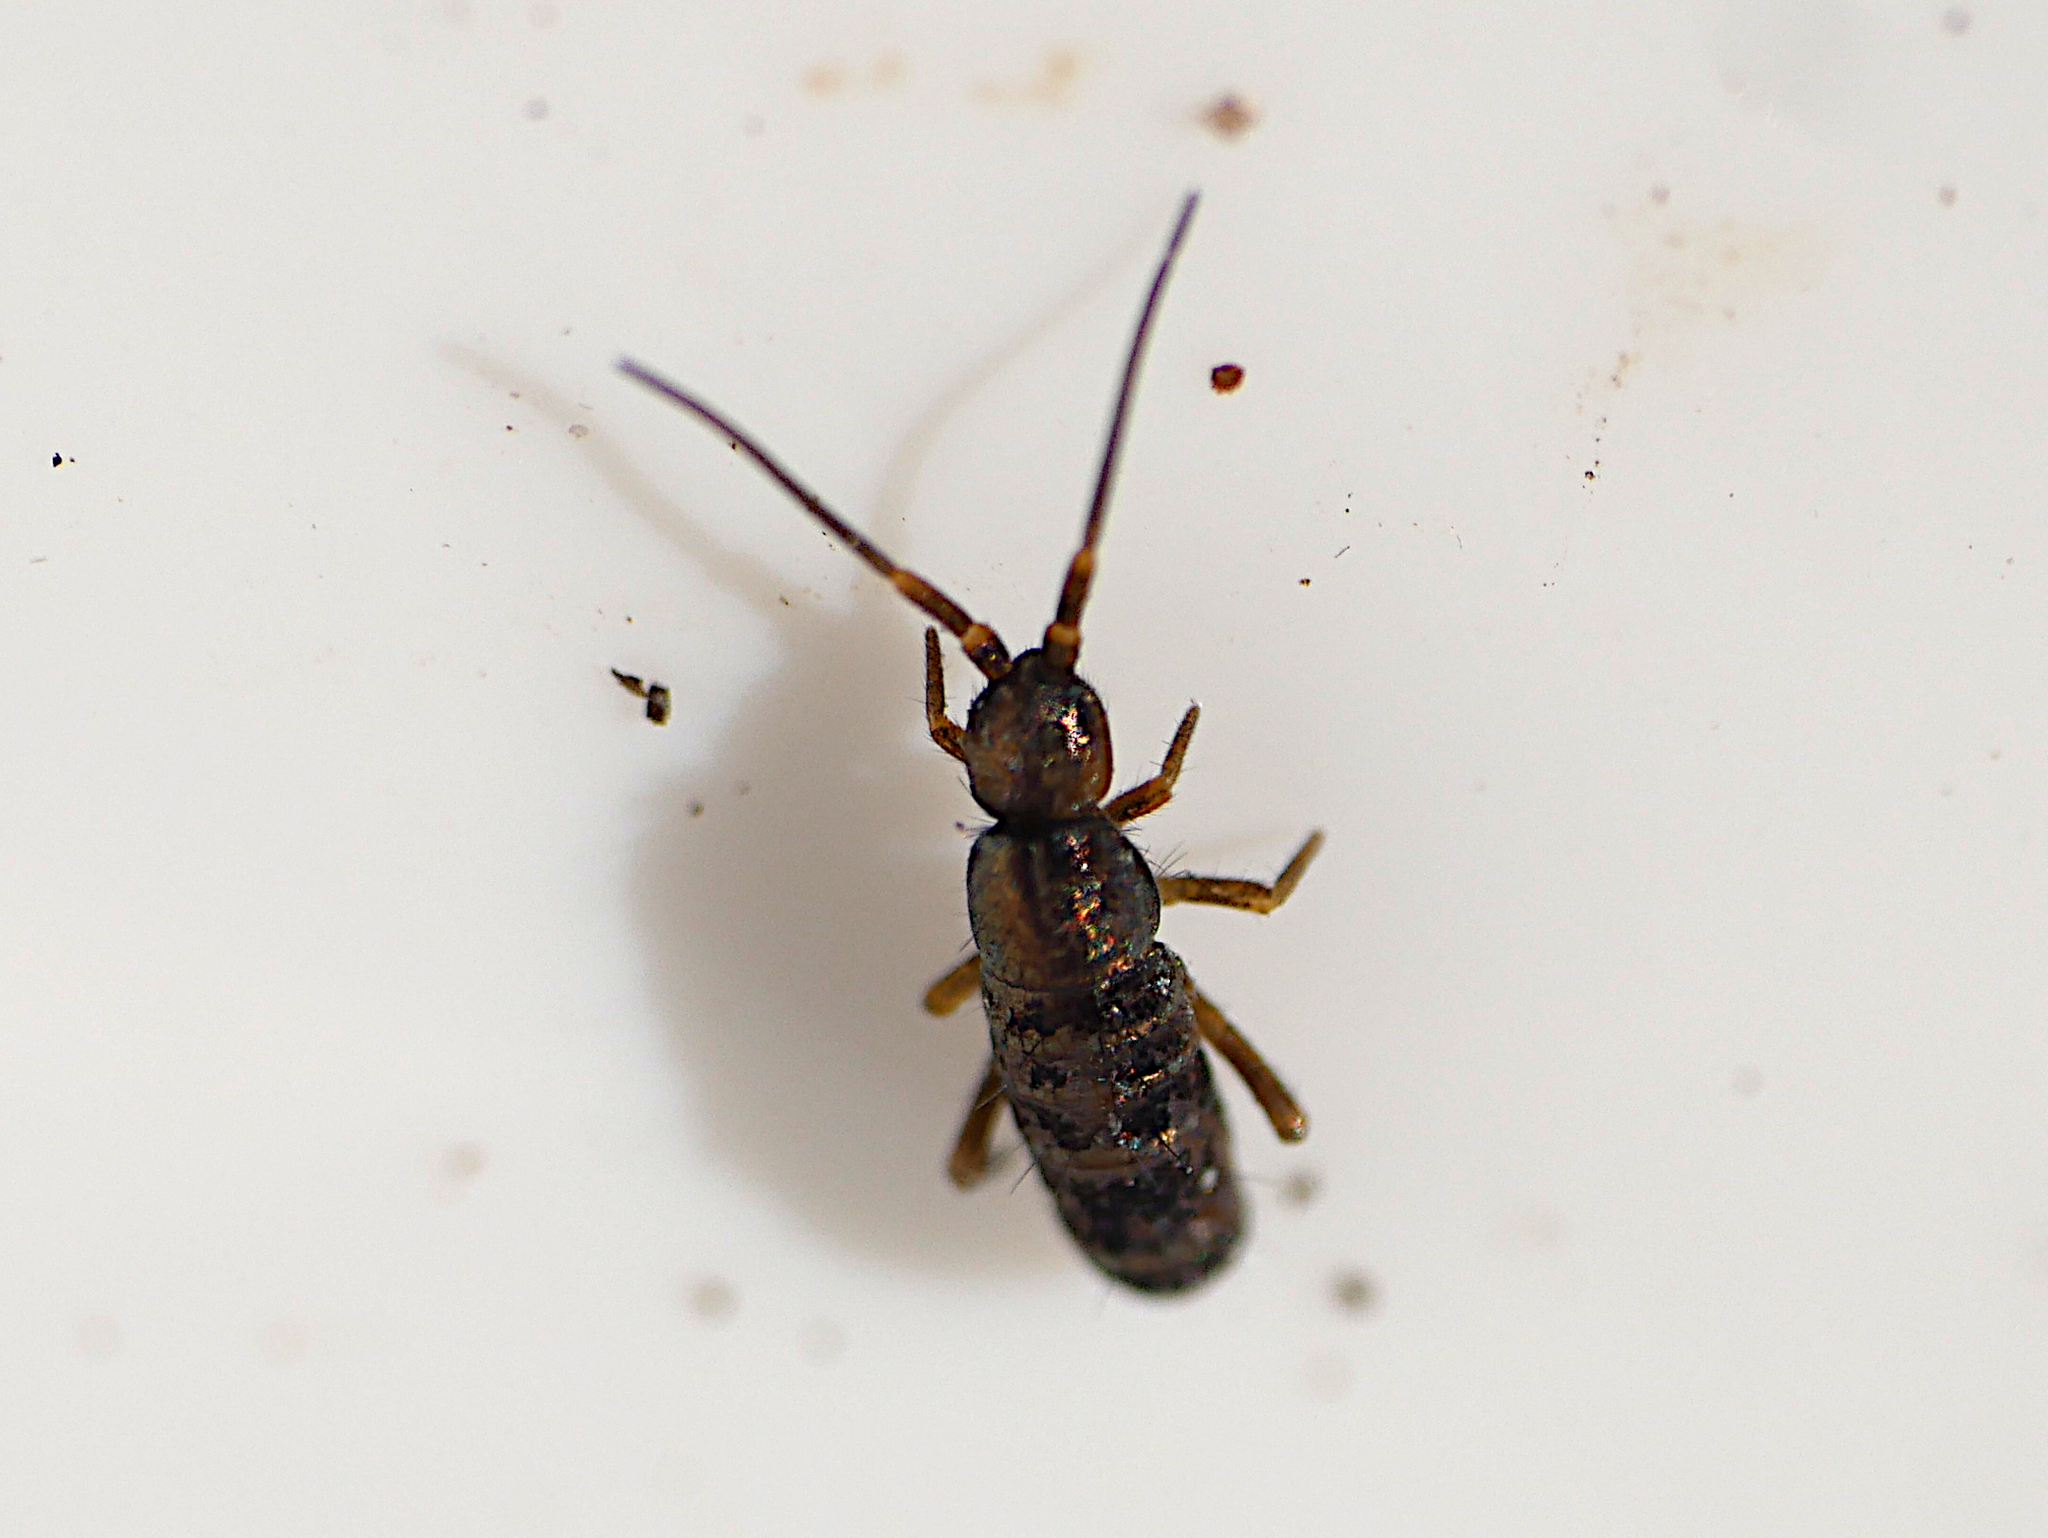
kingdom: Animalia
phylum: Arthropoda
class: Collembola
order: Entomobryomorpha
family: Tomoceridae
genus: Tomocerus
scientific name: Tomocerus vulgaris
